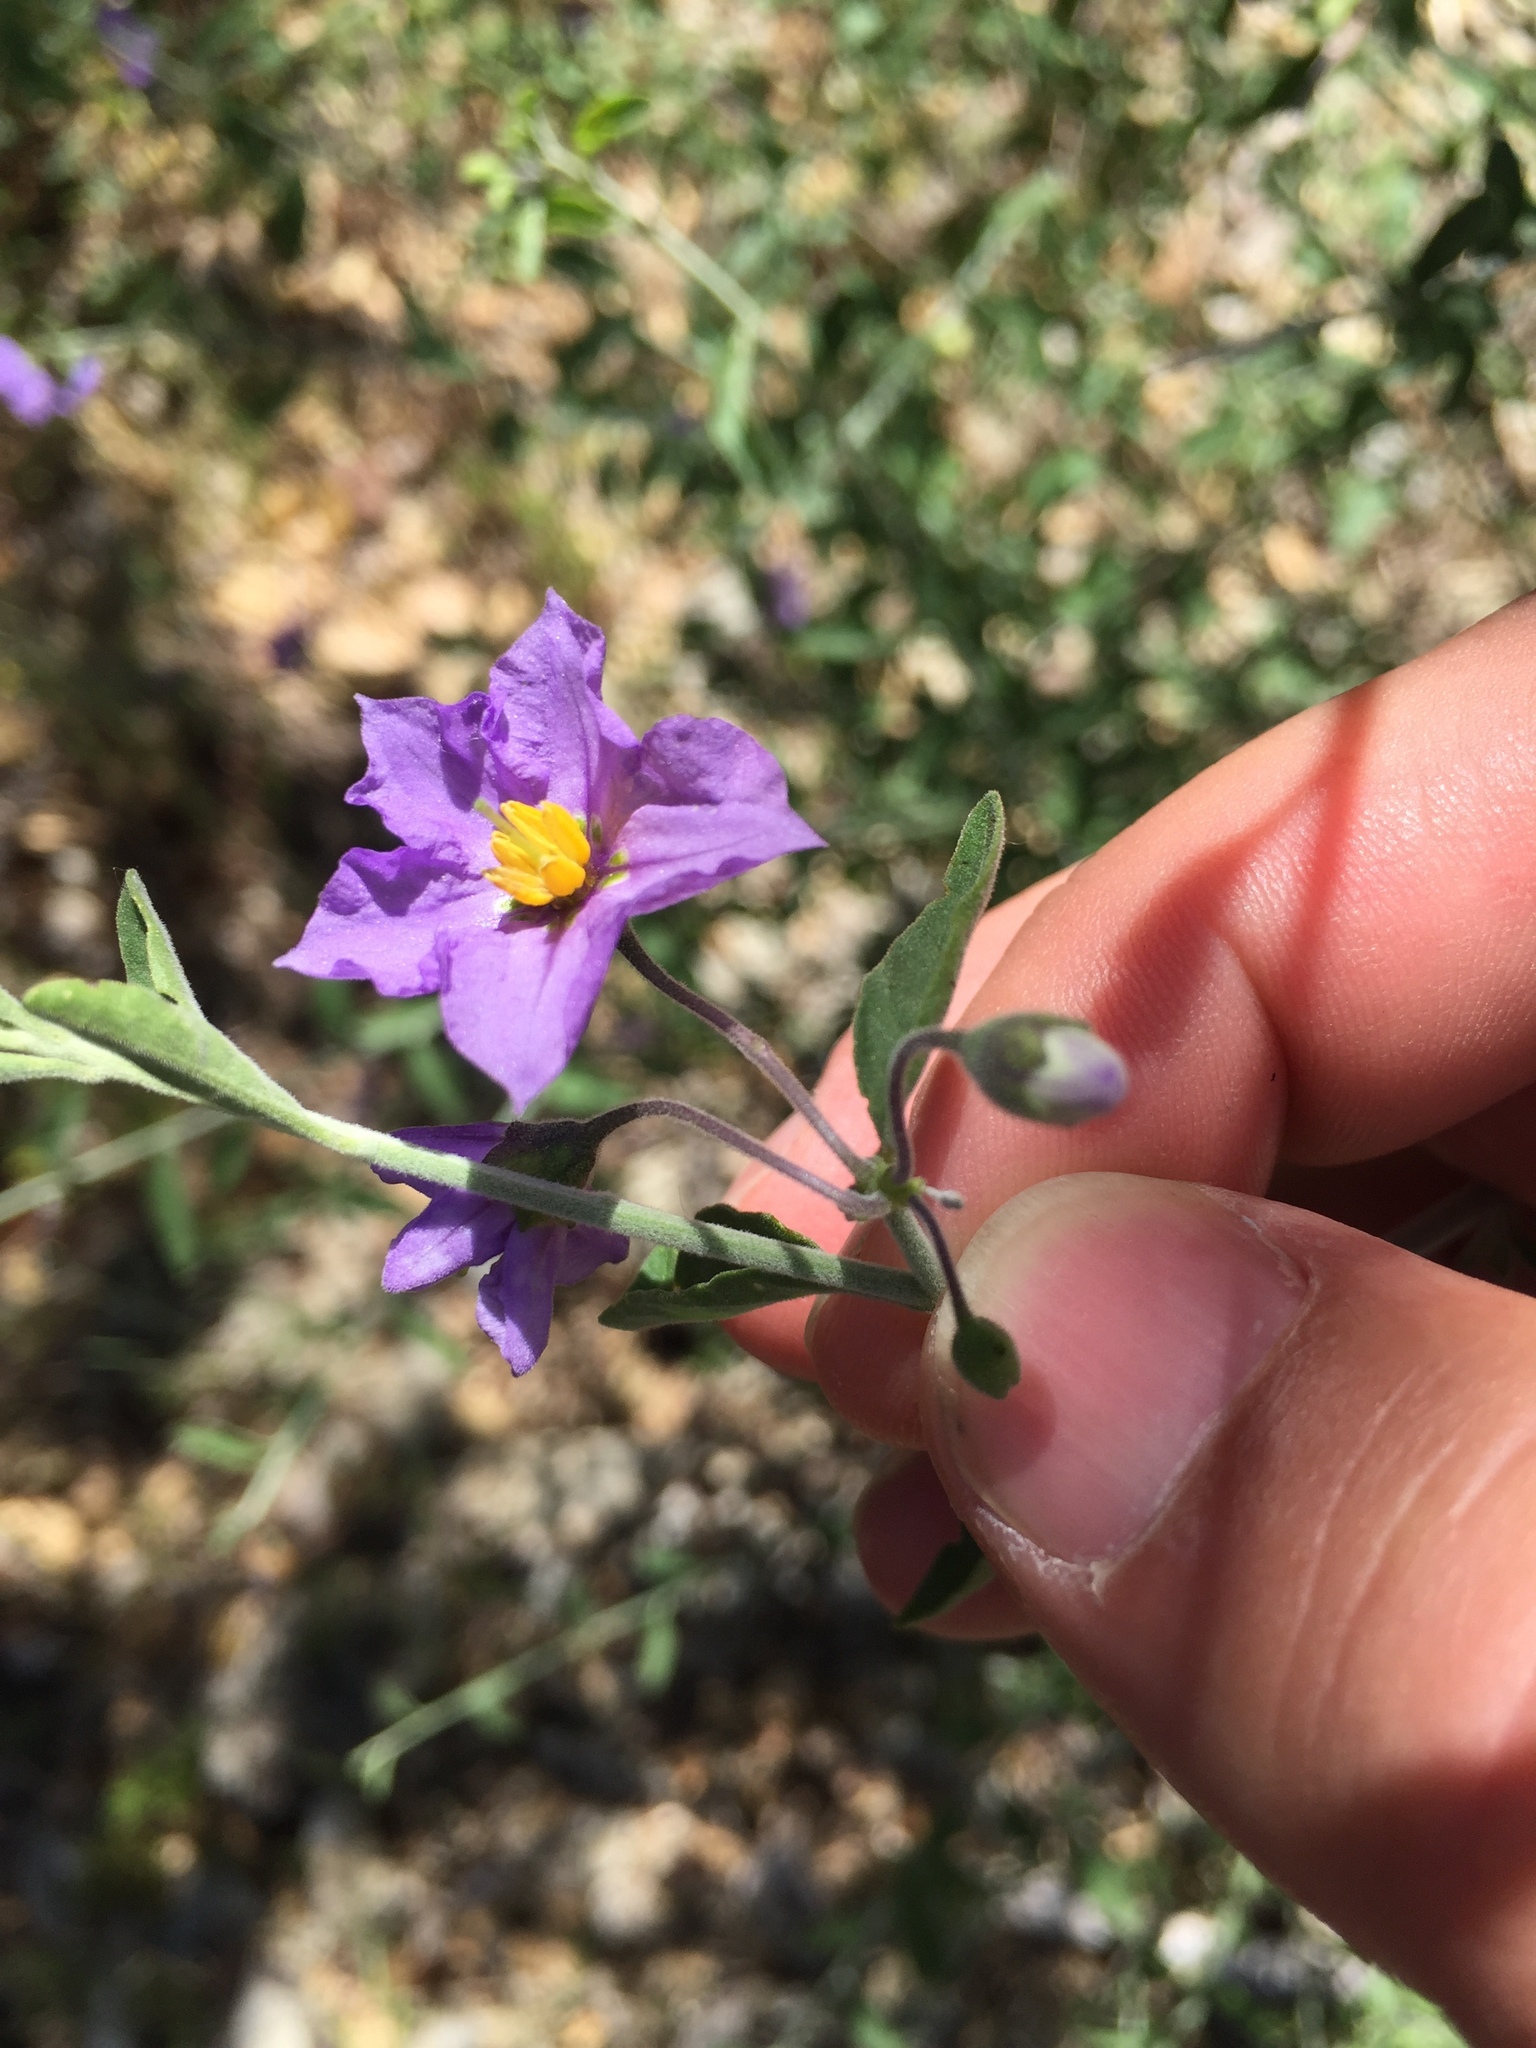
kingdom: Plantae
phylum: Tracheophyta
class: Magnoliopsida
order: Solanales
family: Solanaceae
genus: Solanum
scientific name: Solanum umbelliferum
